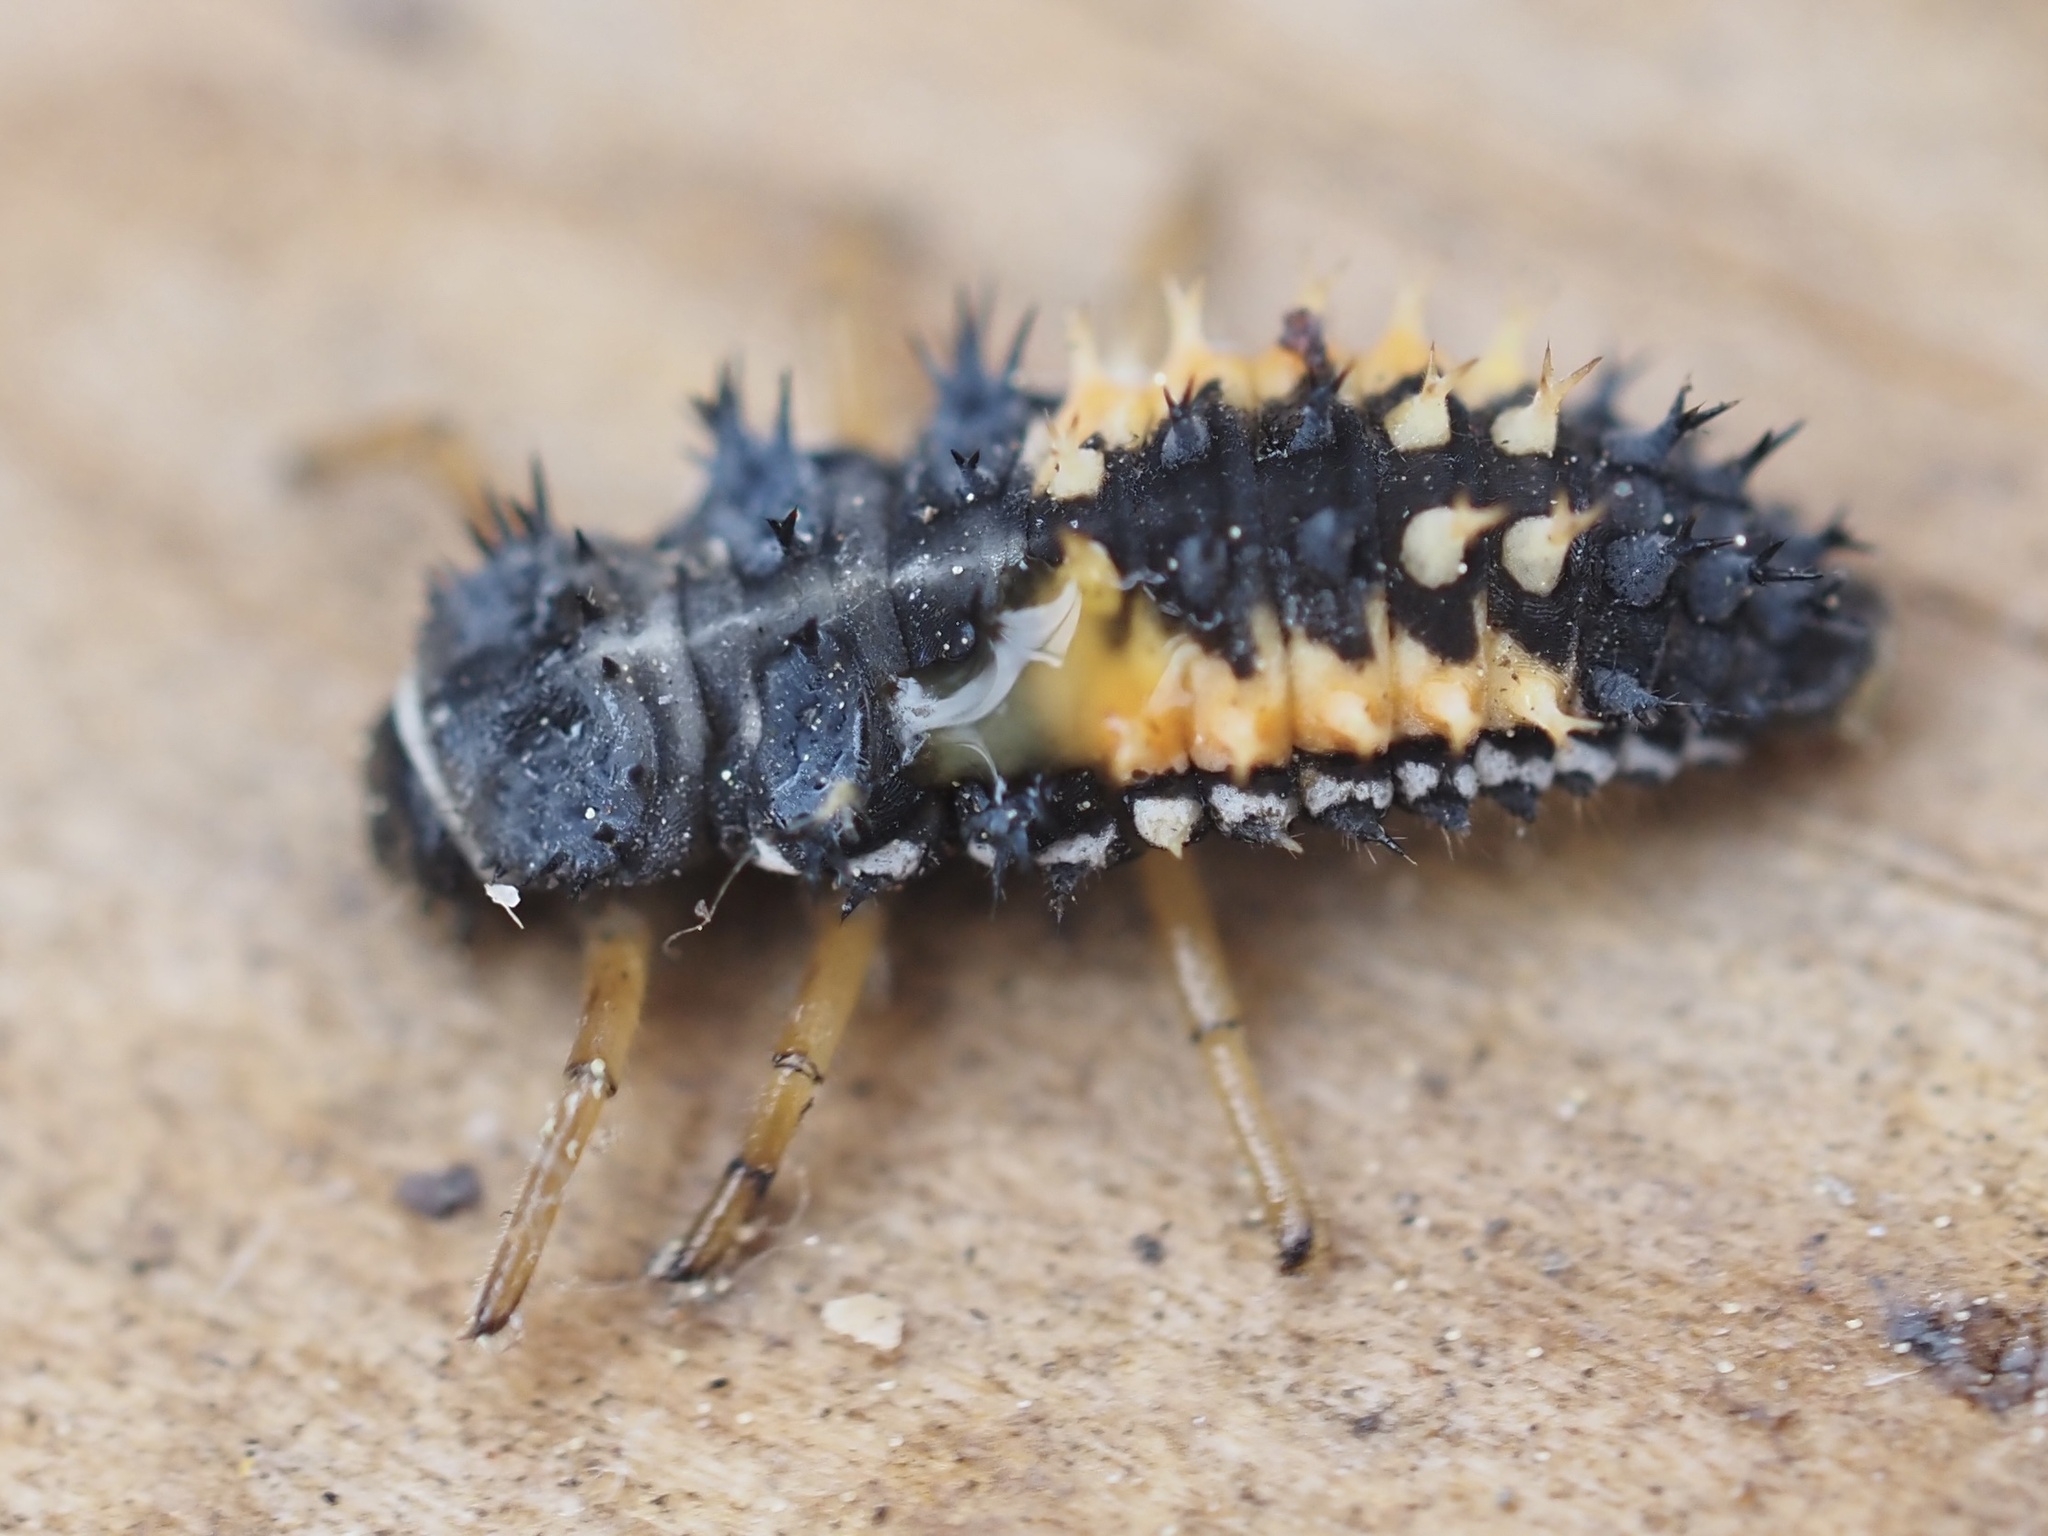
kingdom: Animalia
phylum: Arthropoda
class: Insecta
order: Coleoptera
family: Coccinellidae
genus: Harmonia
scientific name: Harmonia axyridis
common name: Harlequin ladybird
